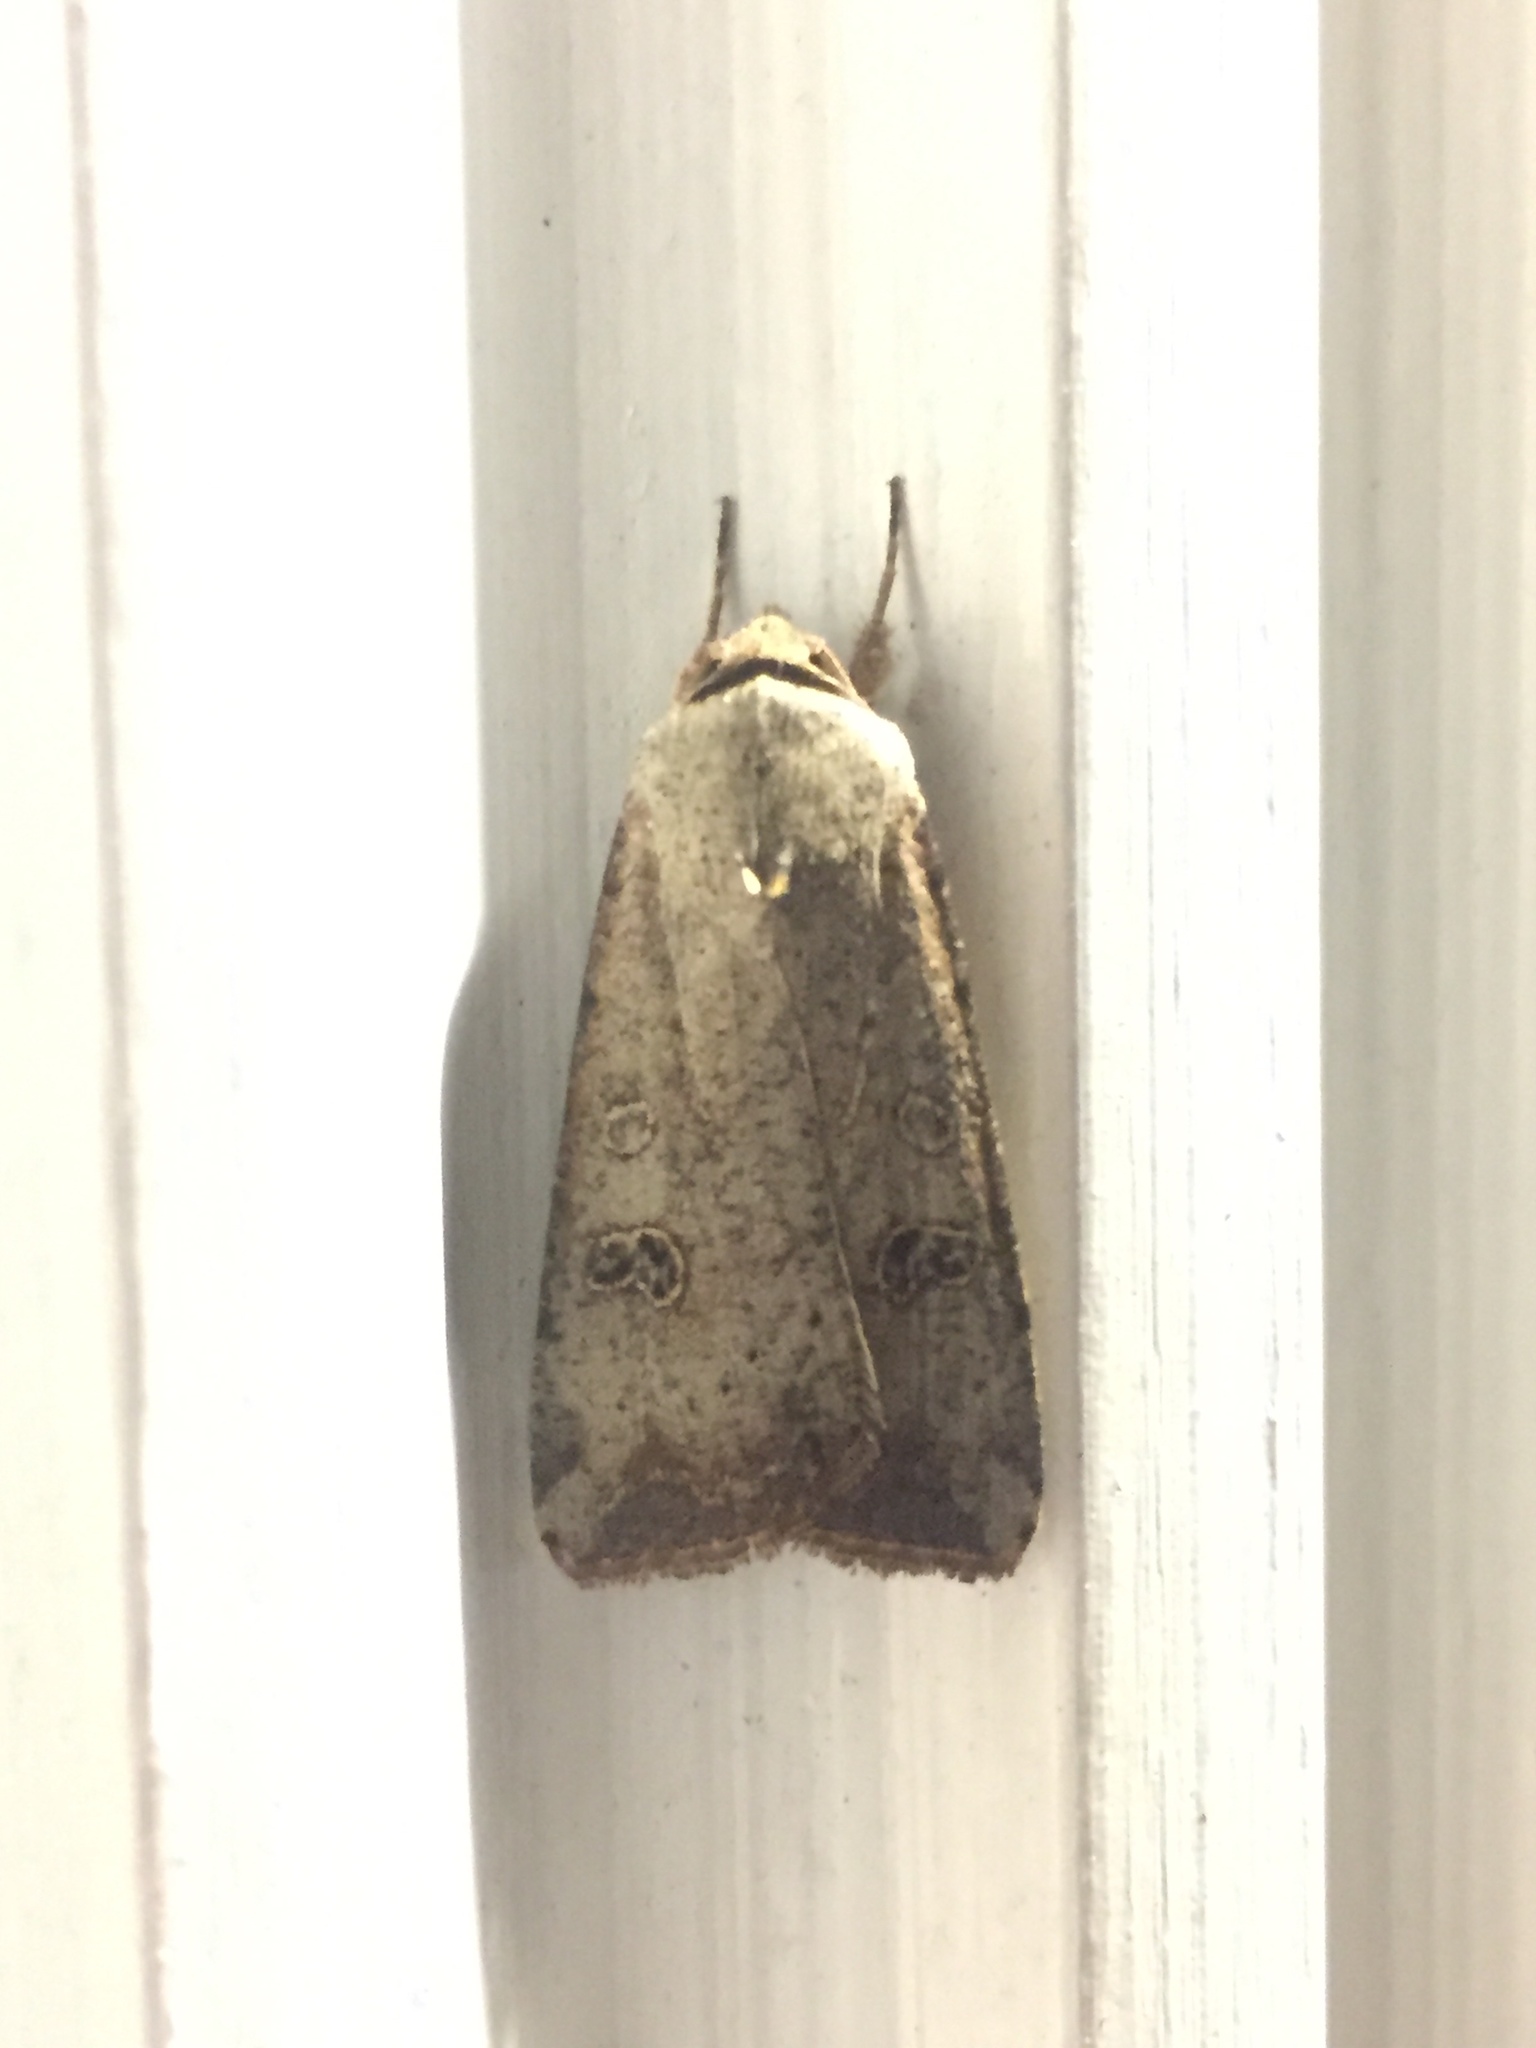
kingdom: Animalia
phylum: Arthropoda
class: Insecta
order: Lepidoptera
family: Noctuidae
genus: Anicla
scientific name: Anicla infecta
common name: Green cutworm
